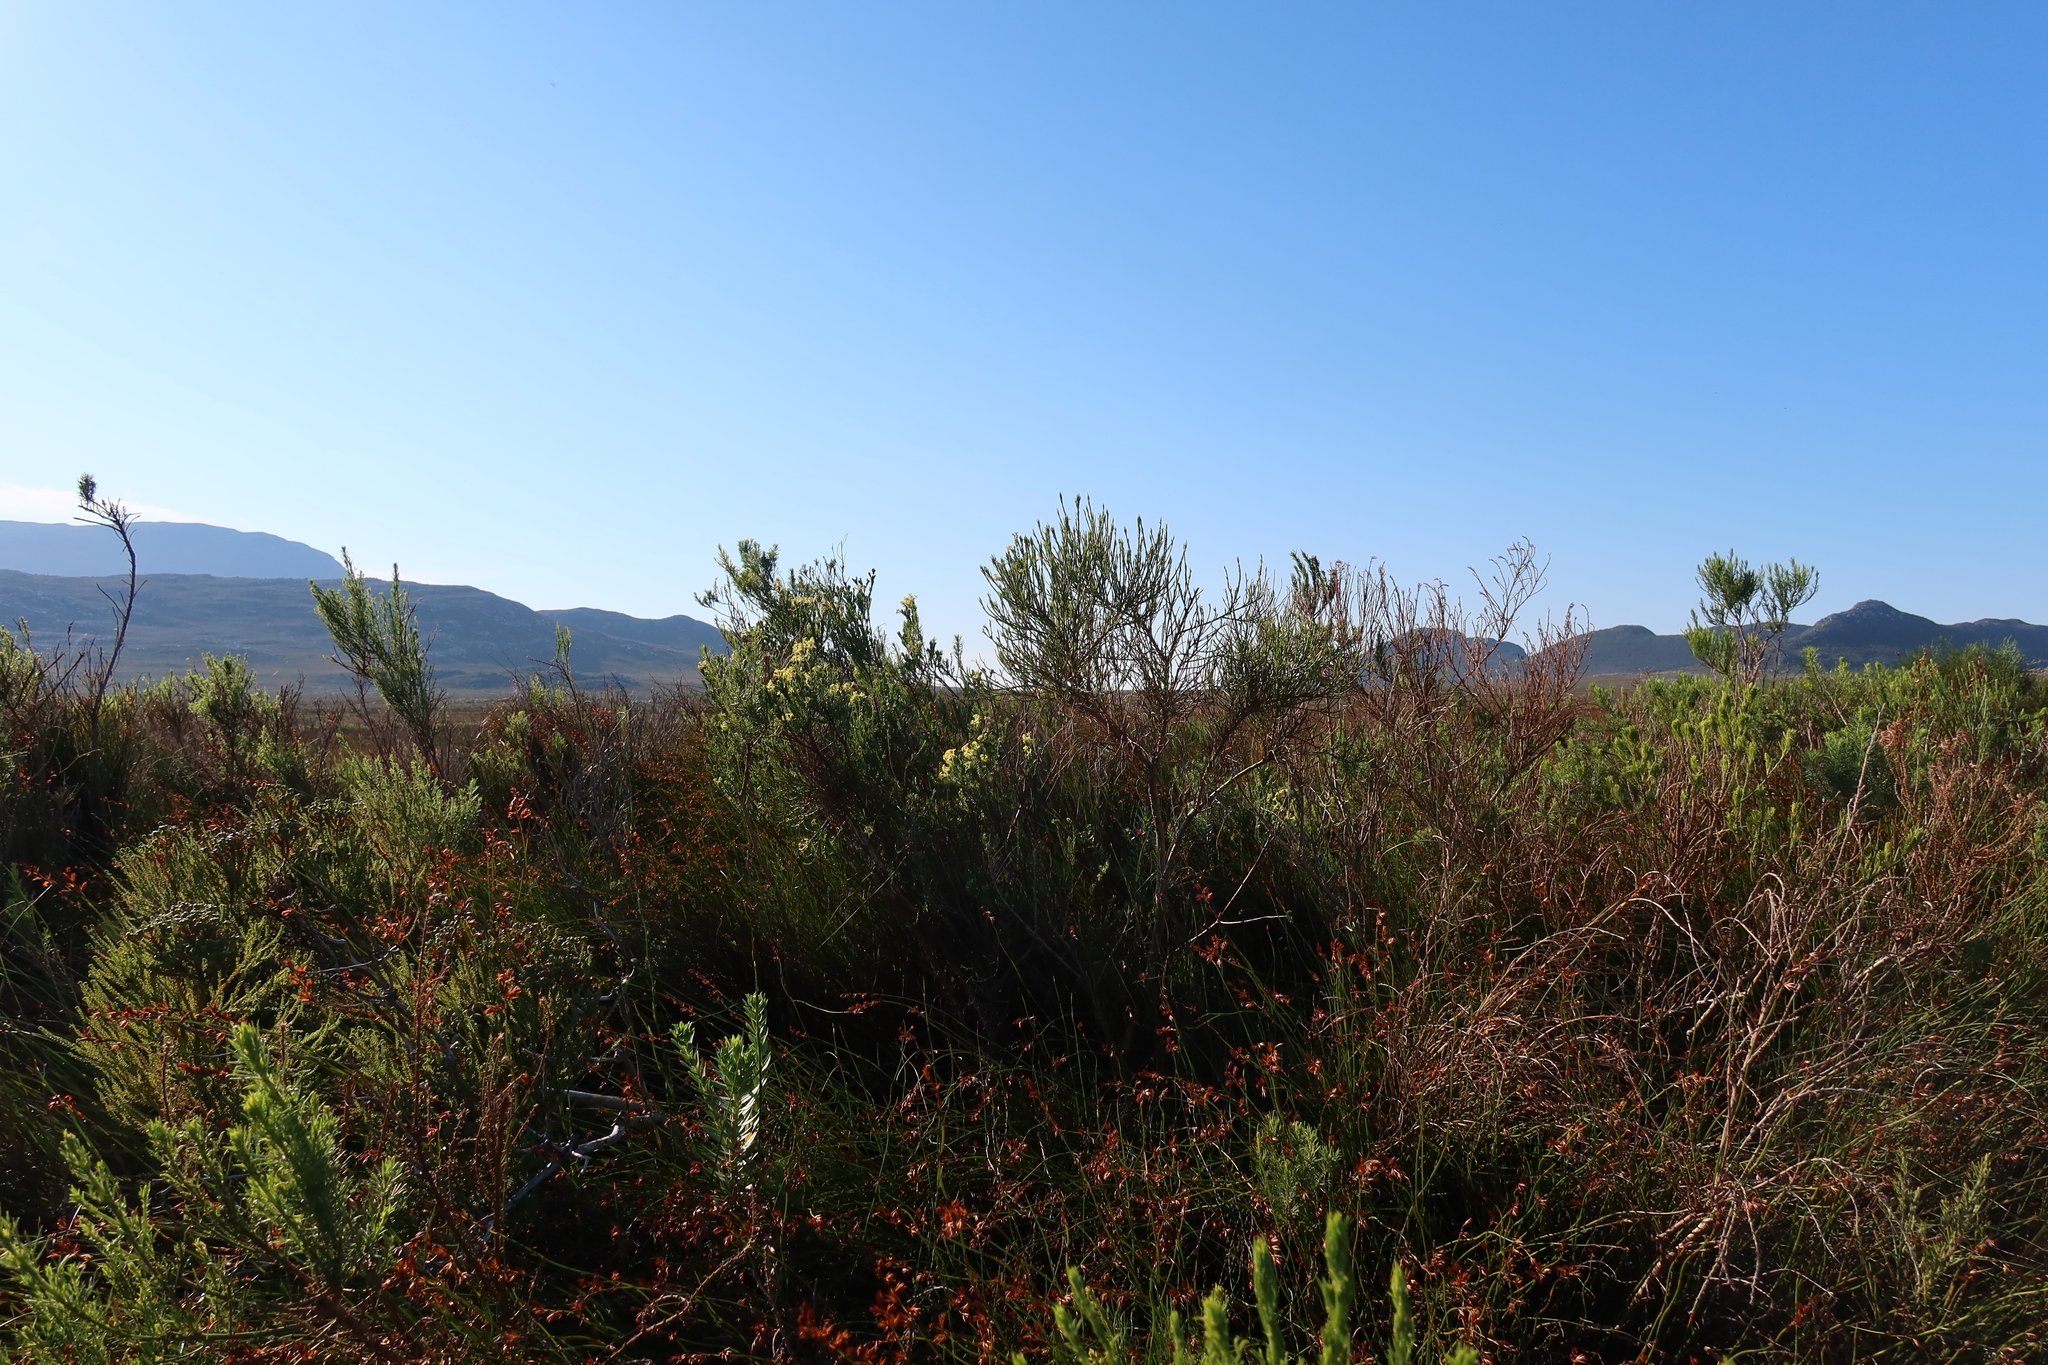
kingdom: Plantae
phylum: Tracheophyta
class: Magnoliopsida
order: Malvales
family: Thymelaeaceae
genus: Gnidia
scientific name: Gnidia oppositifolia
